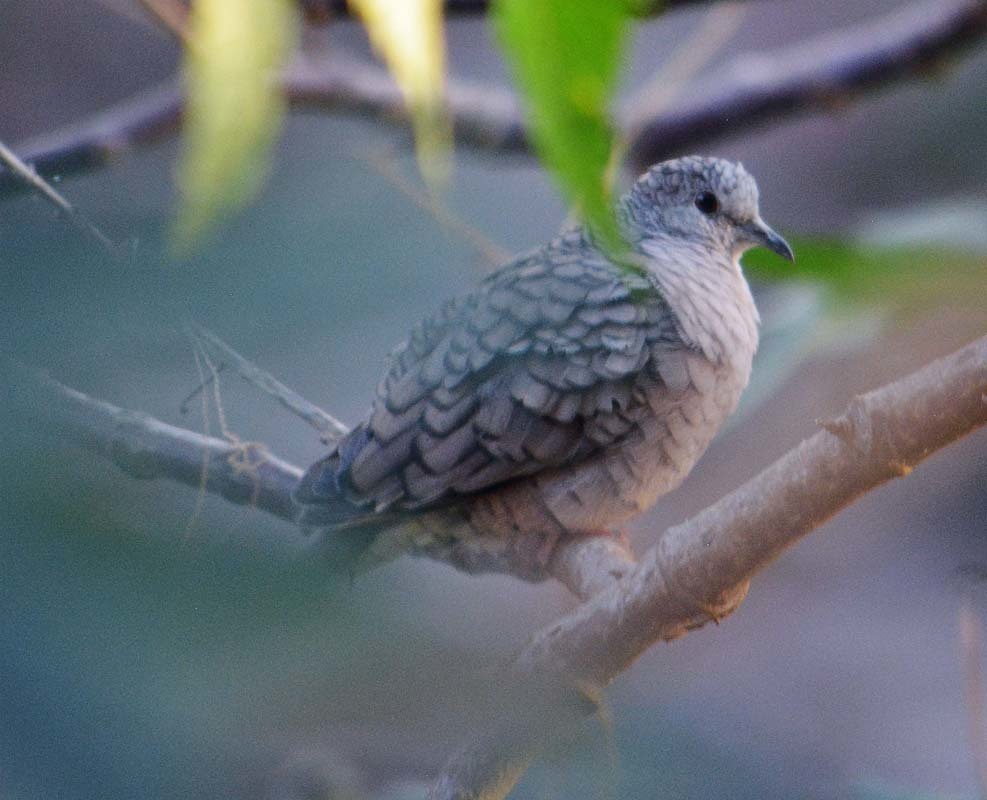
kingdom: Animalia
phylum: Chordata
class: Aves
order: Columbiformes
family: Columbidae
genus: Columbina
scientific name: Columbina inca
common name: Inca dove
